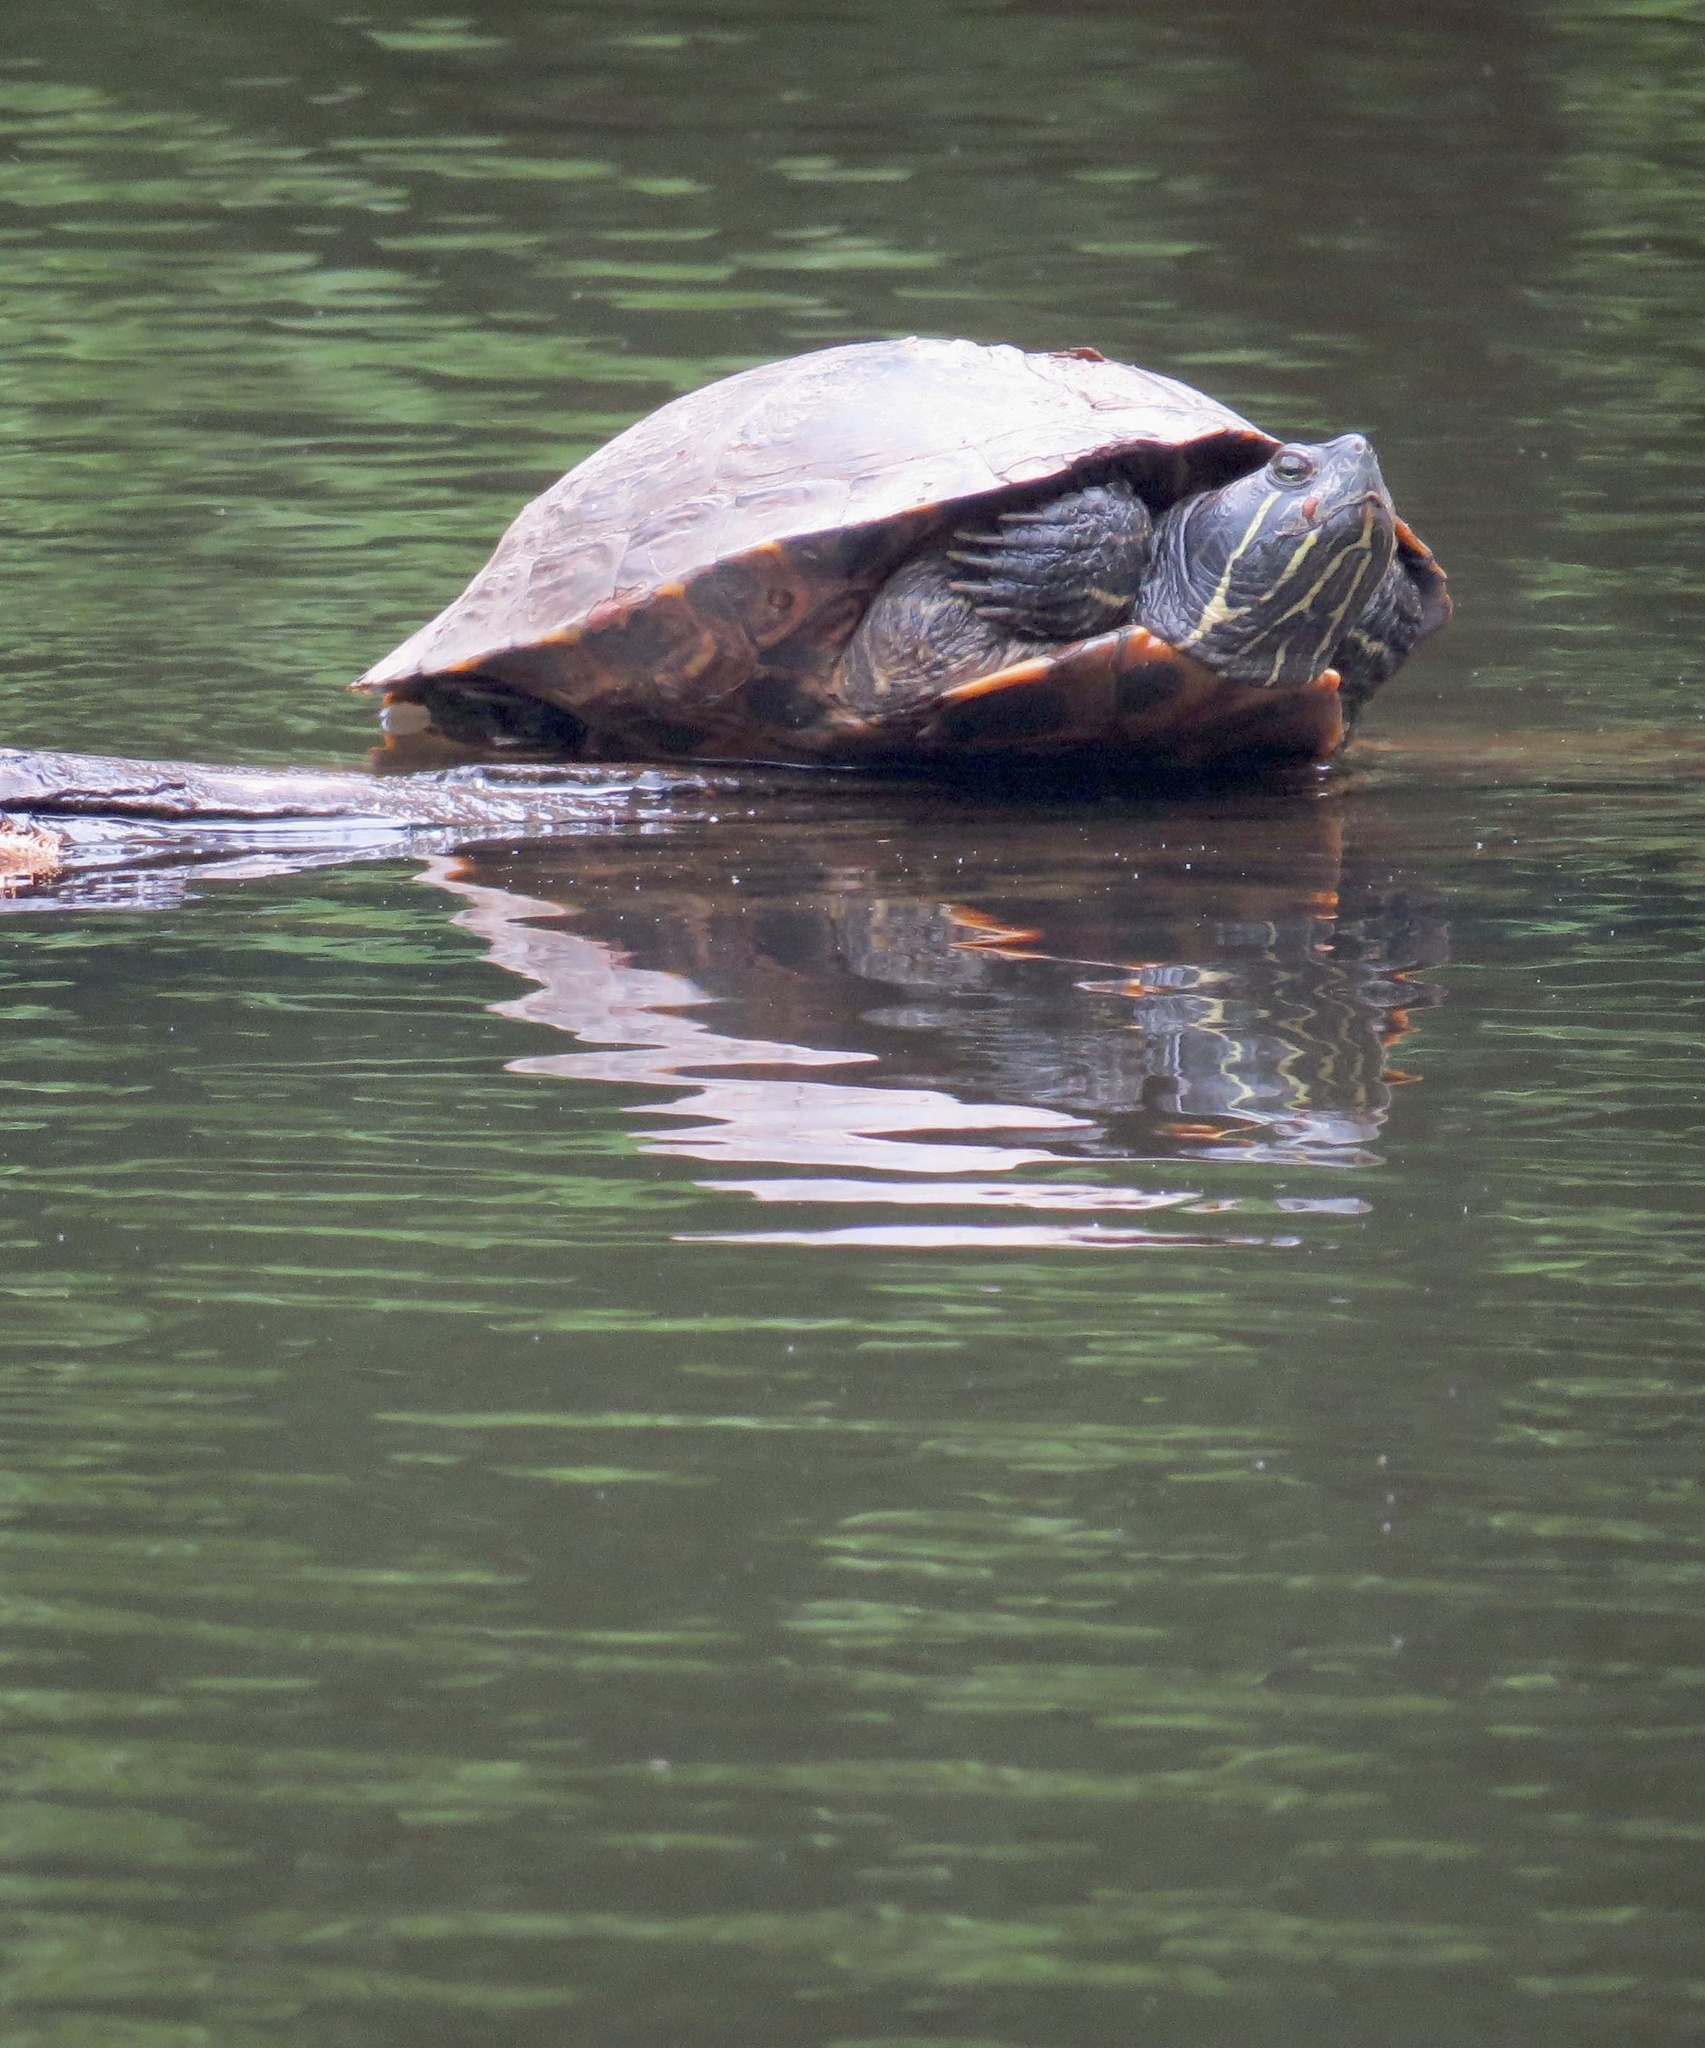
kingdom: Animalia
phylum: Chordata
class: Testudines
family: Emydidae
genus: Trachemys
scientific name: Trachemys scripta
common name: Slider
